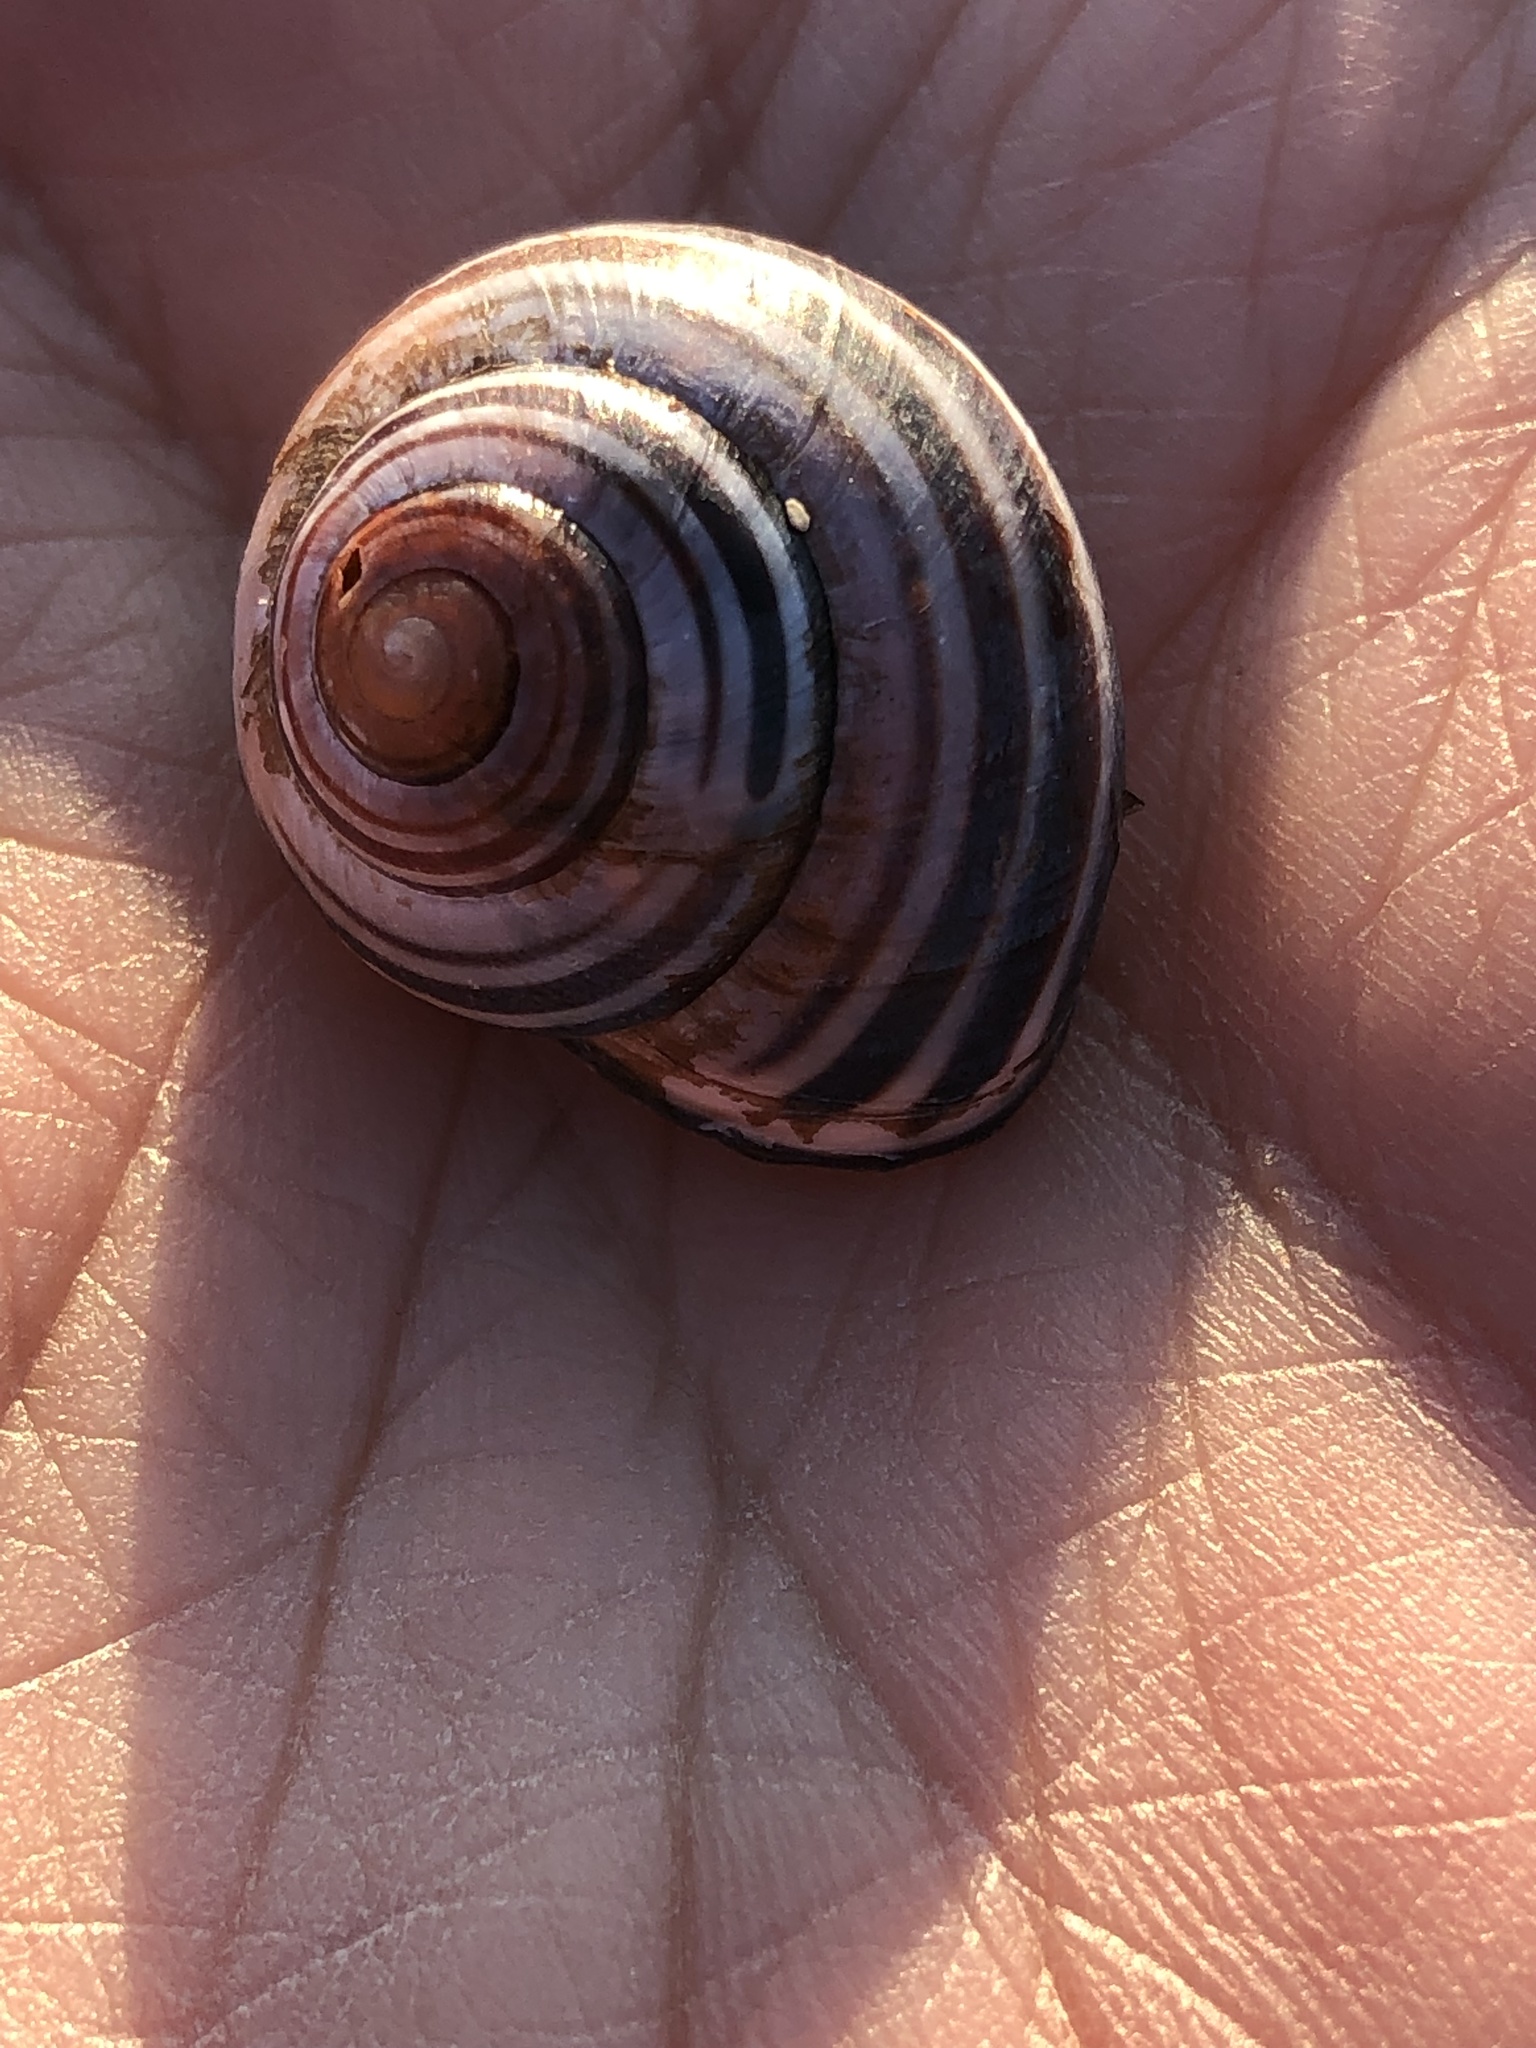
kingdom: Animalia
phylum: Mollusca
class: Gastropoda
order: Stylommatophora
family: Helicidae
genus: Cepaea
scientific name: Cepaea nemoralis
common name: Grovesnail
